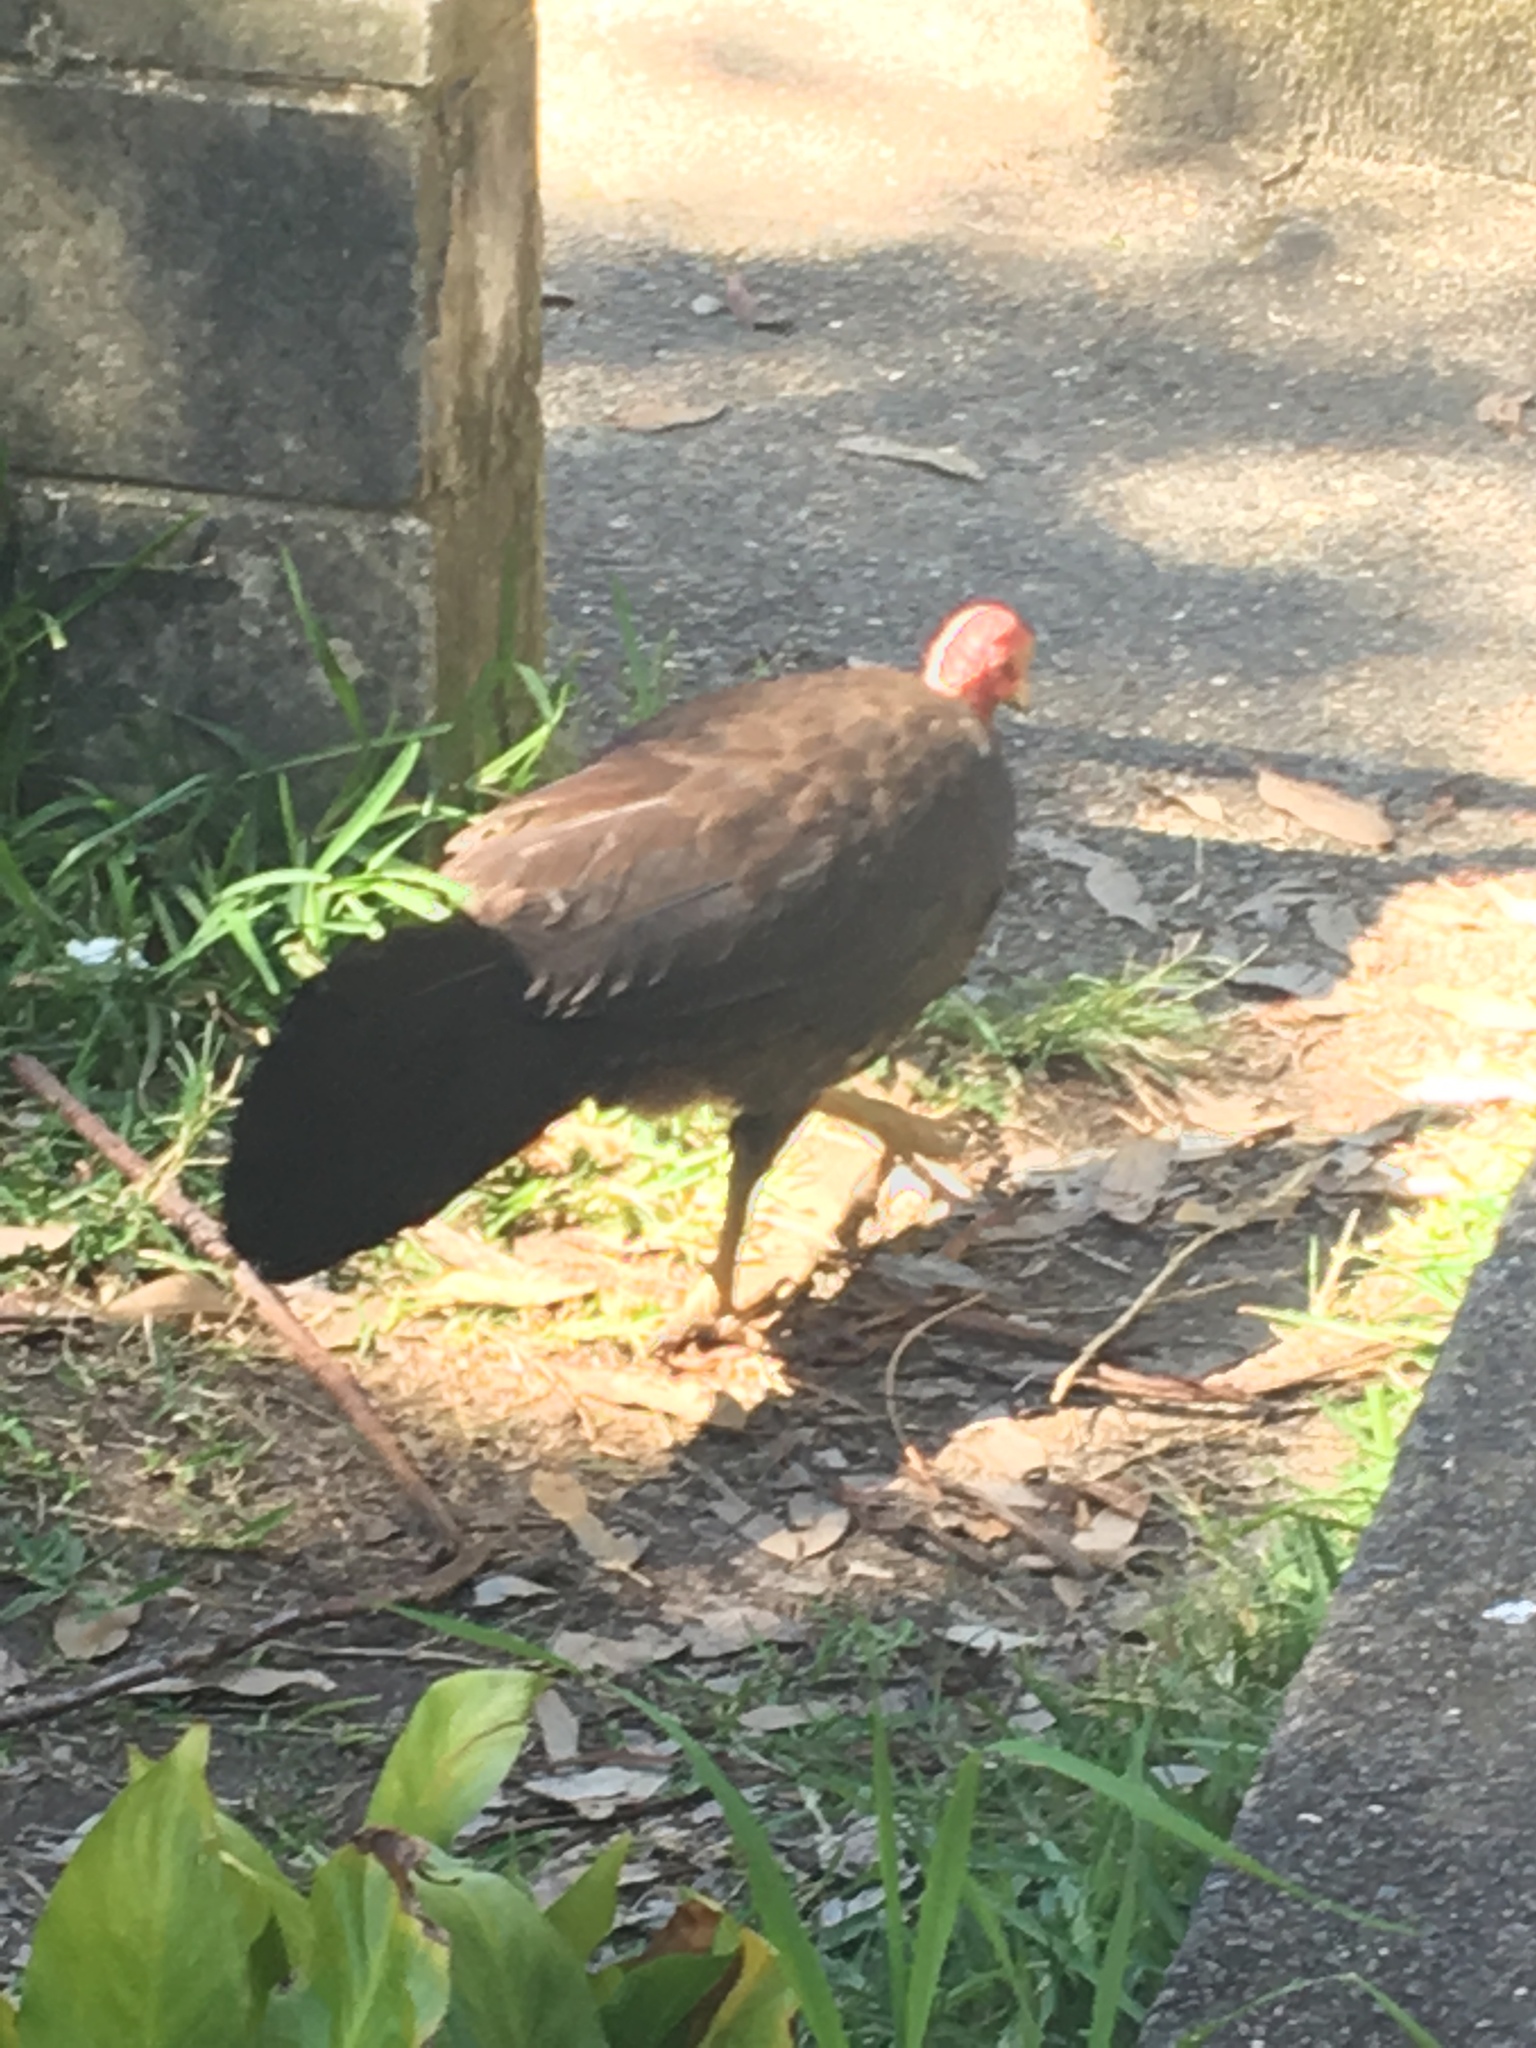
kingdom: Animalia
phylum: Chordata
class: Aves
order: Galliformes
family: Megapodiidae
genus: Alectura
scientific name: Alectura lathami
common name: Australian brushturkey
